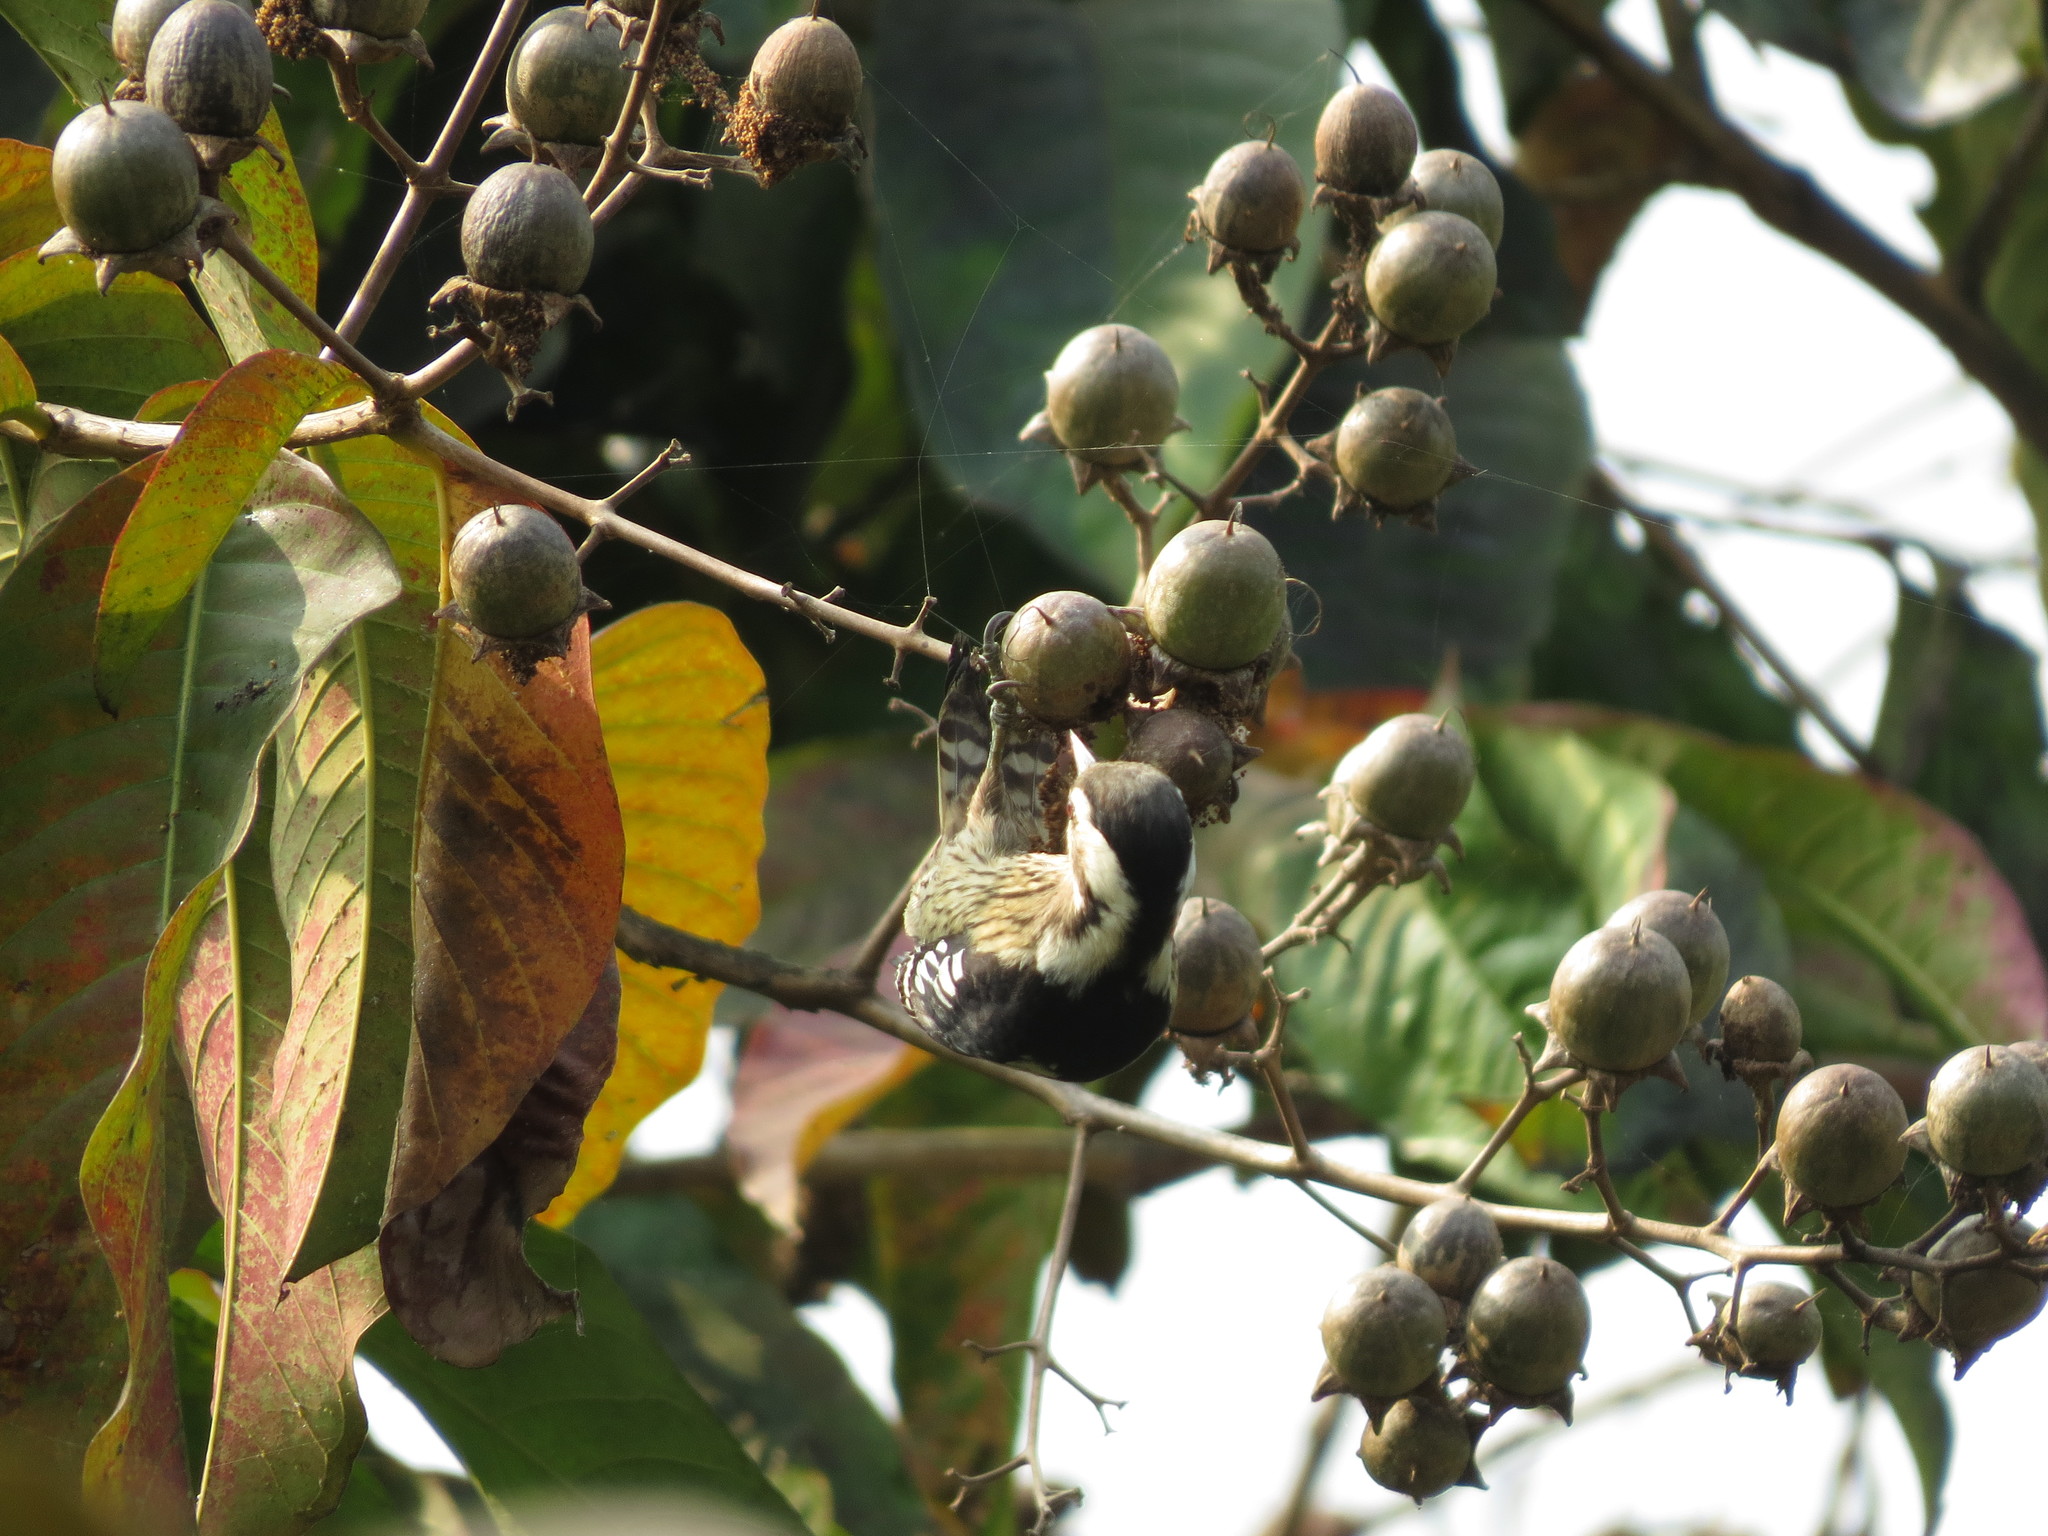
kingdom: Animalia
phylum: Chordata
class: Aves
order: Piciformes
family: Picidae
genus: Yungipicus
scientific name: Yungipicus canicapillus
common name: Grey-capped pygmy woodpecker
